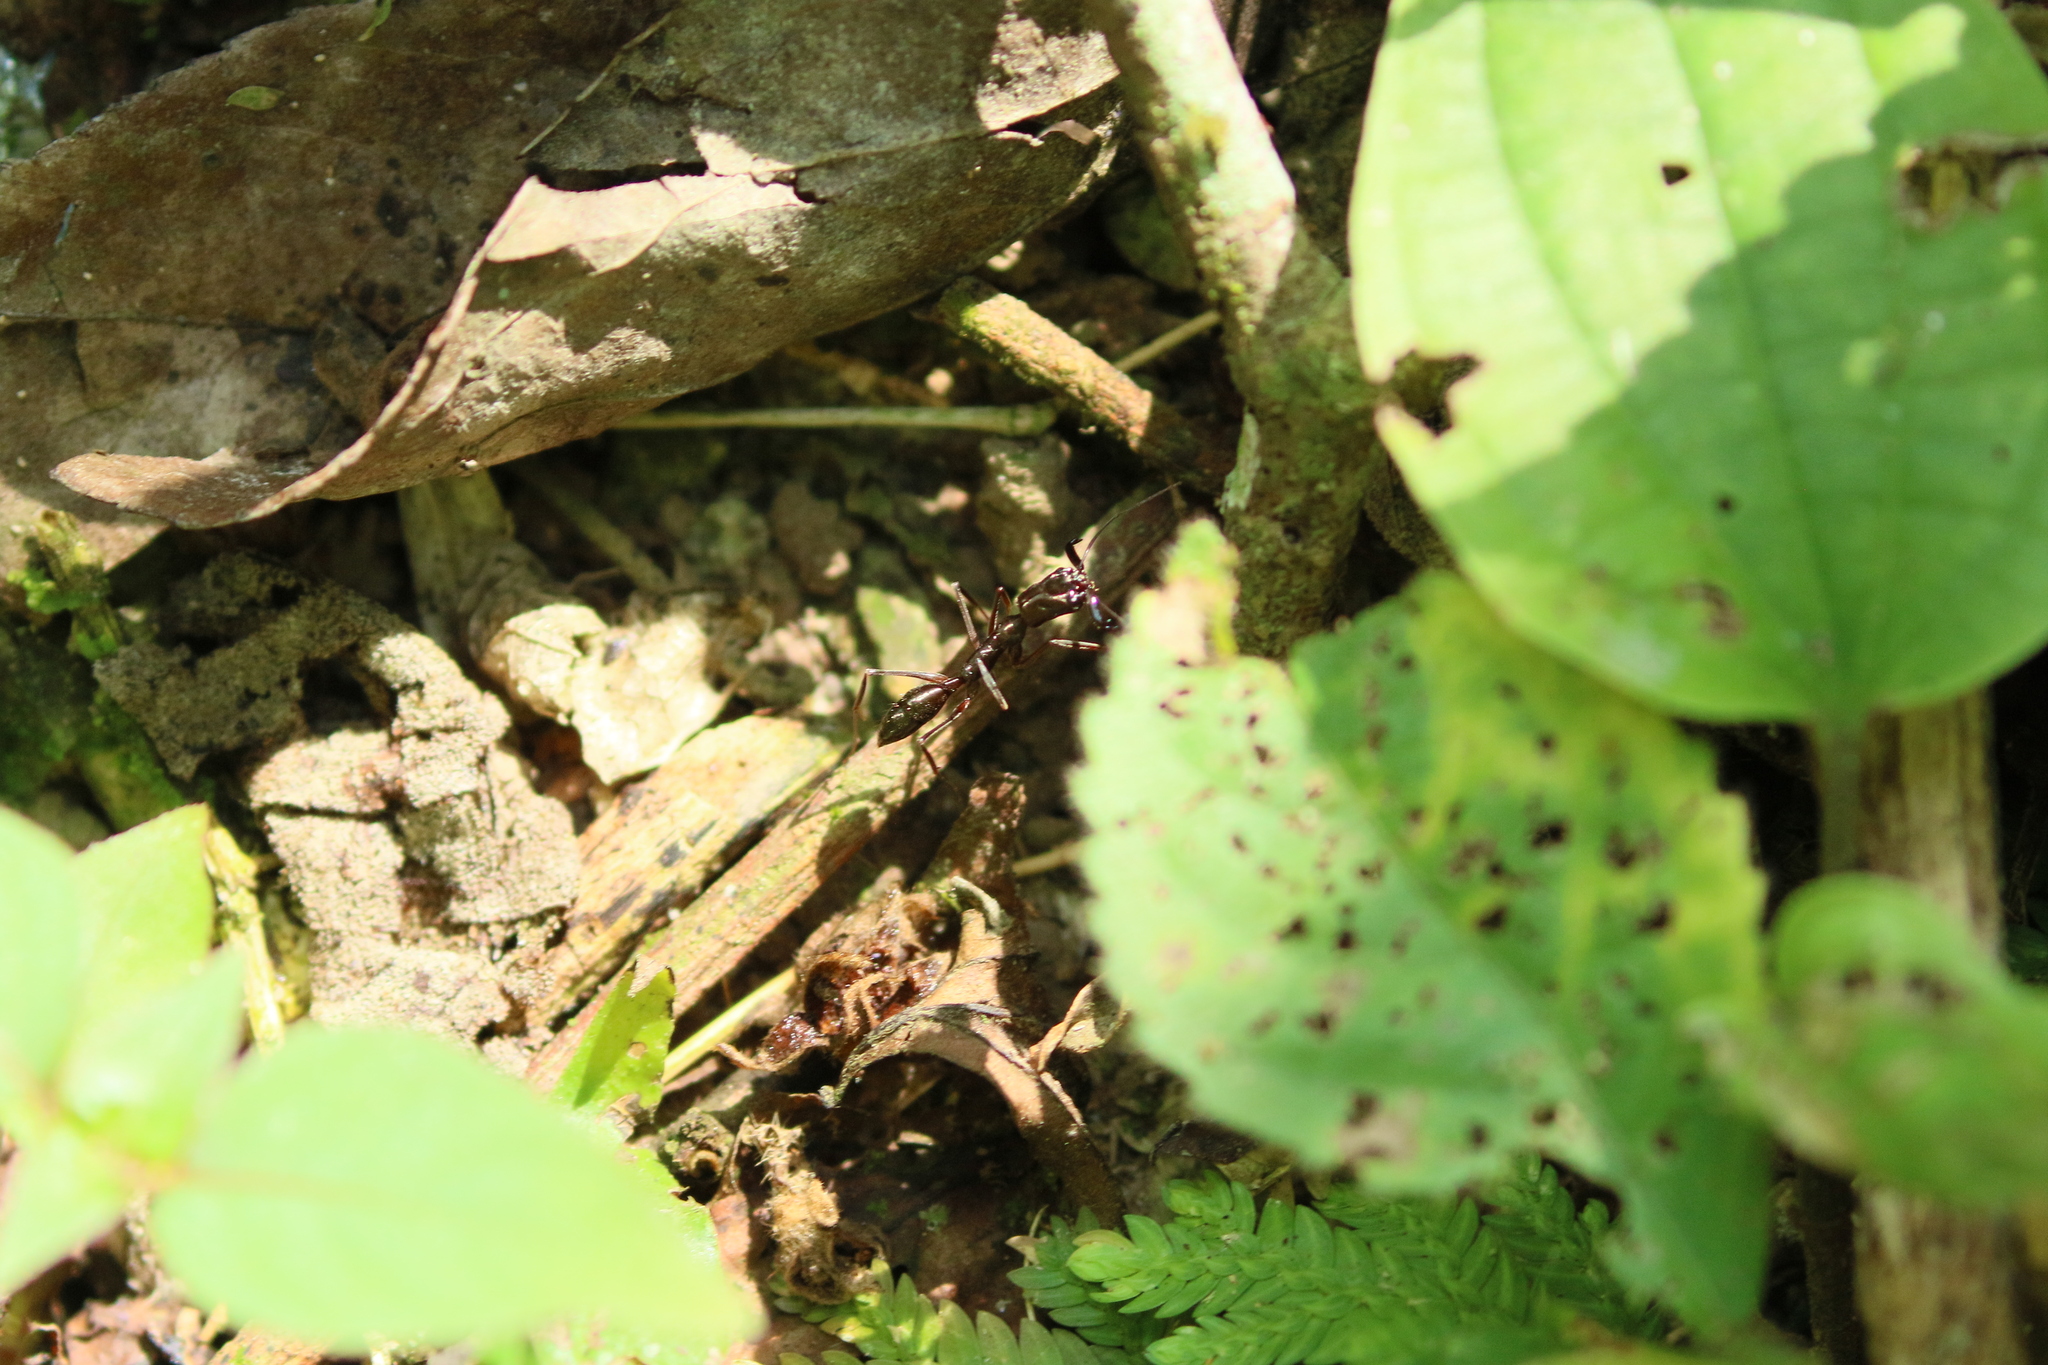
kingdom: Animalia
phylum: Arthropoda
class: Insecta
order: Hymenoptera
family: Formicidae
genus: Odontomachus
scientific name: Odontomachus chelifer
